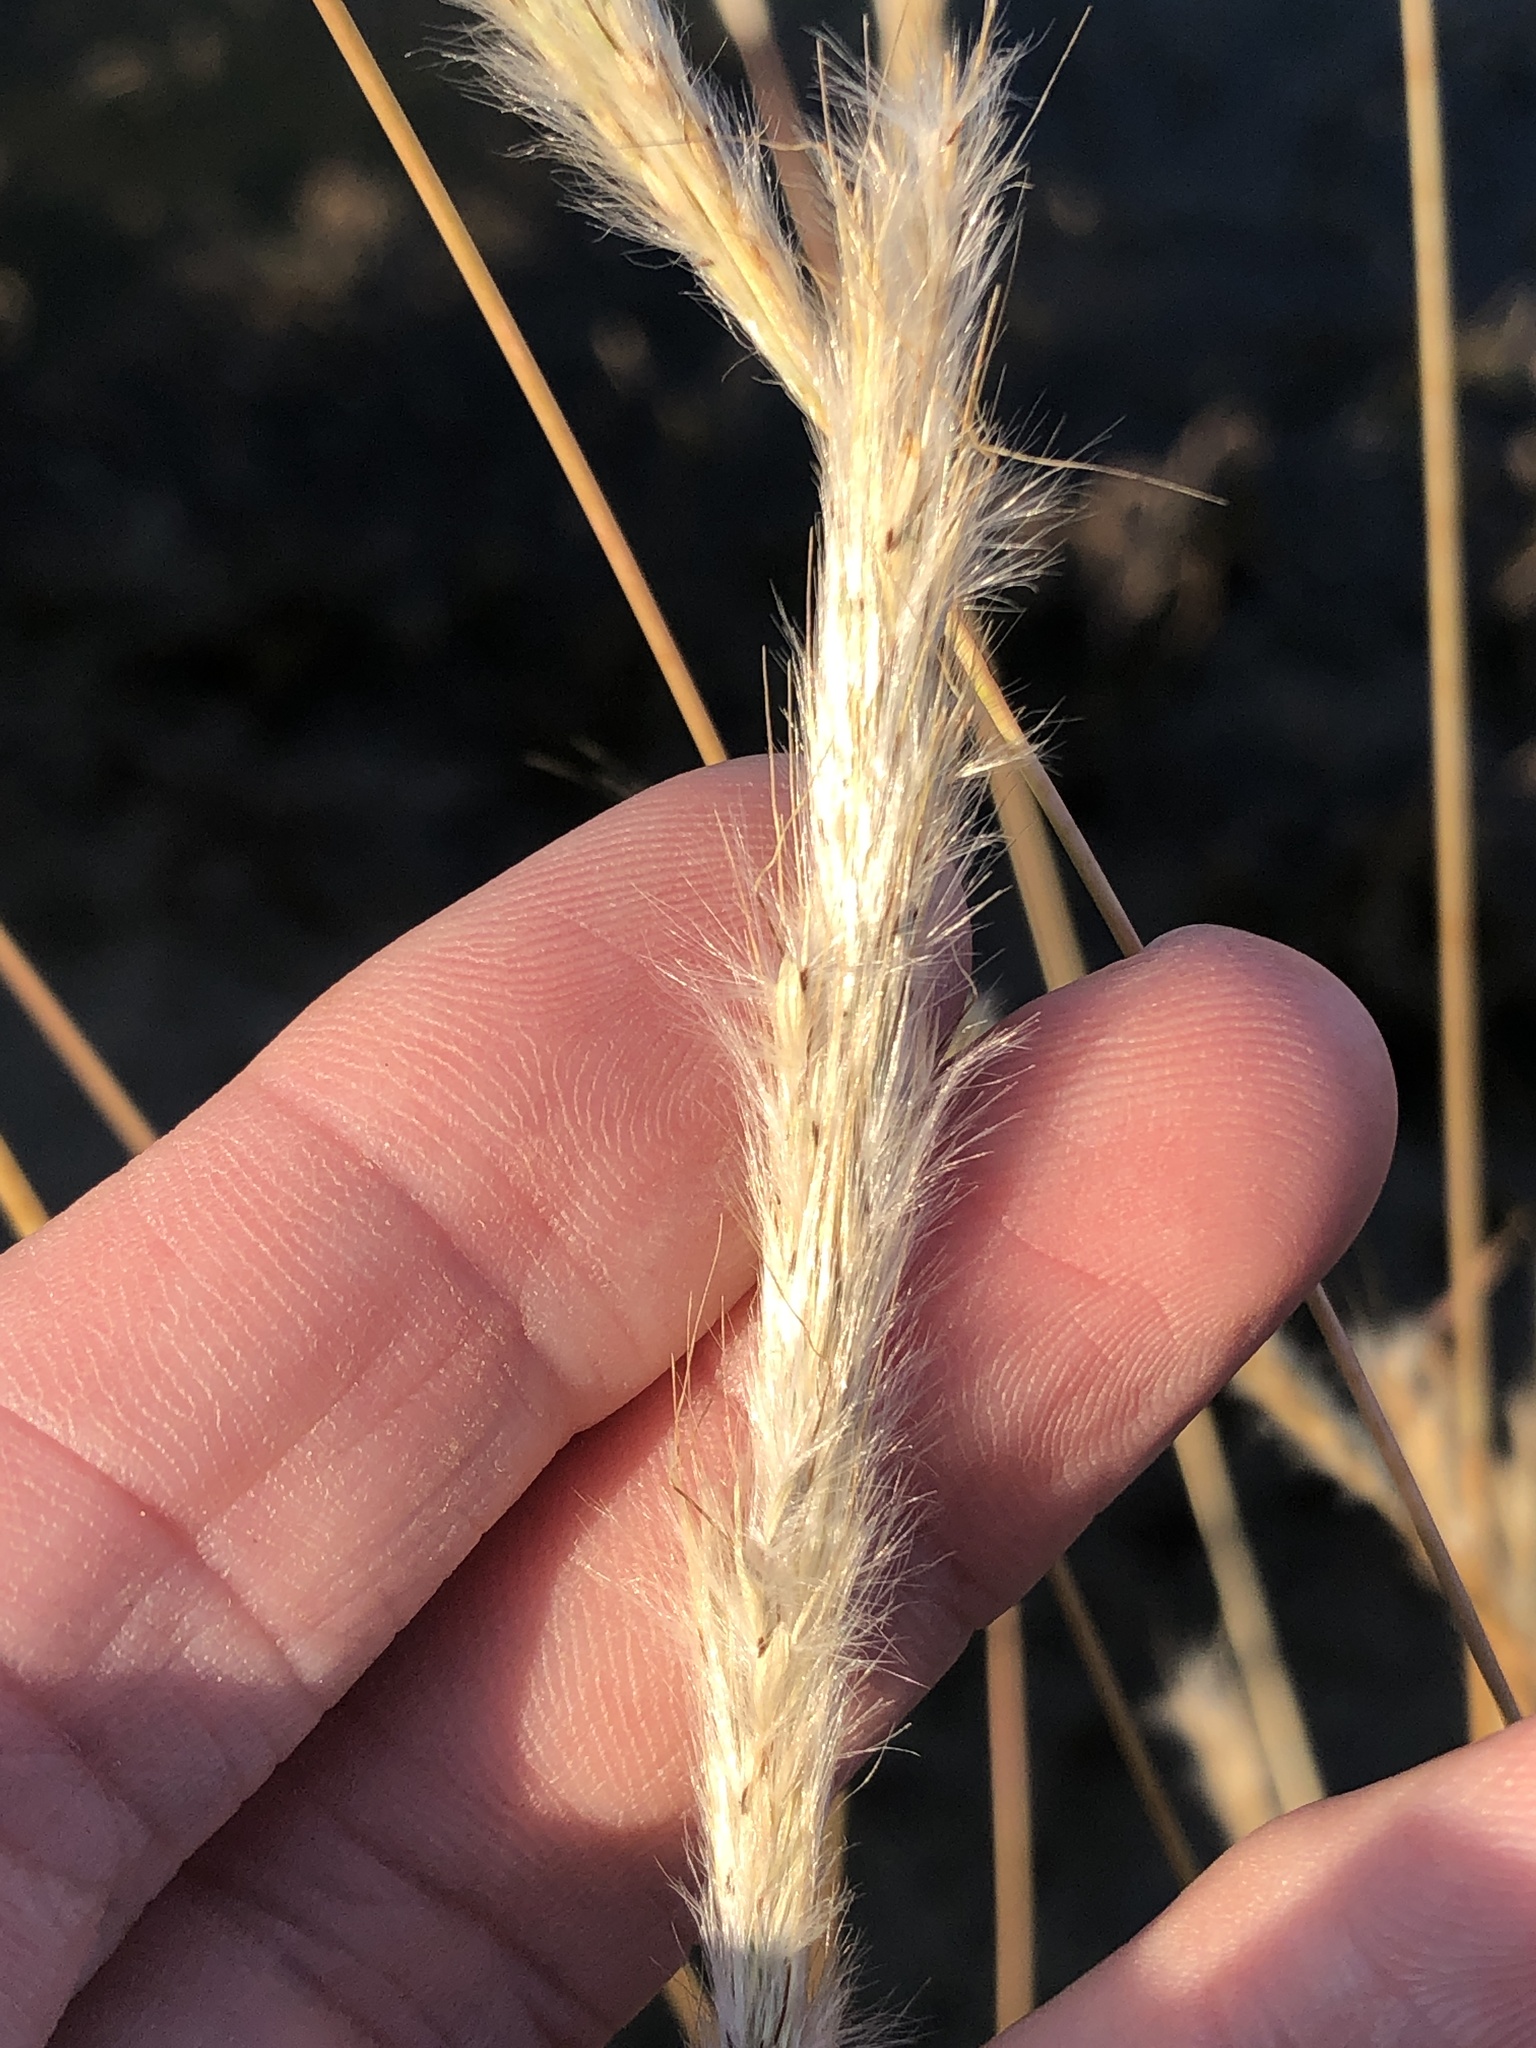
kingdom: Plantae
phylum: Tracheophyta
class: Liliopsida
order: Poales
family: Poaceae
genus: Bothriochloa
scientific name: Bothriochloa torreyana
